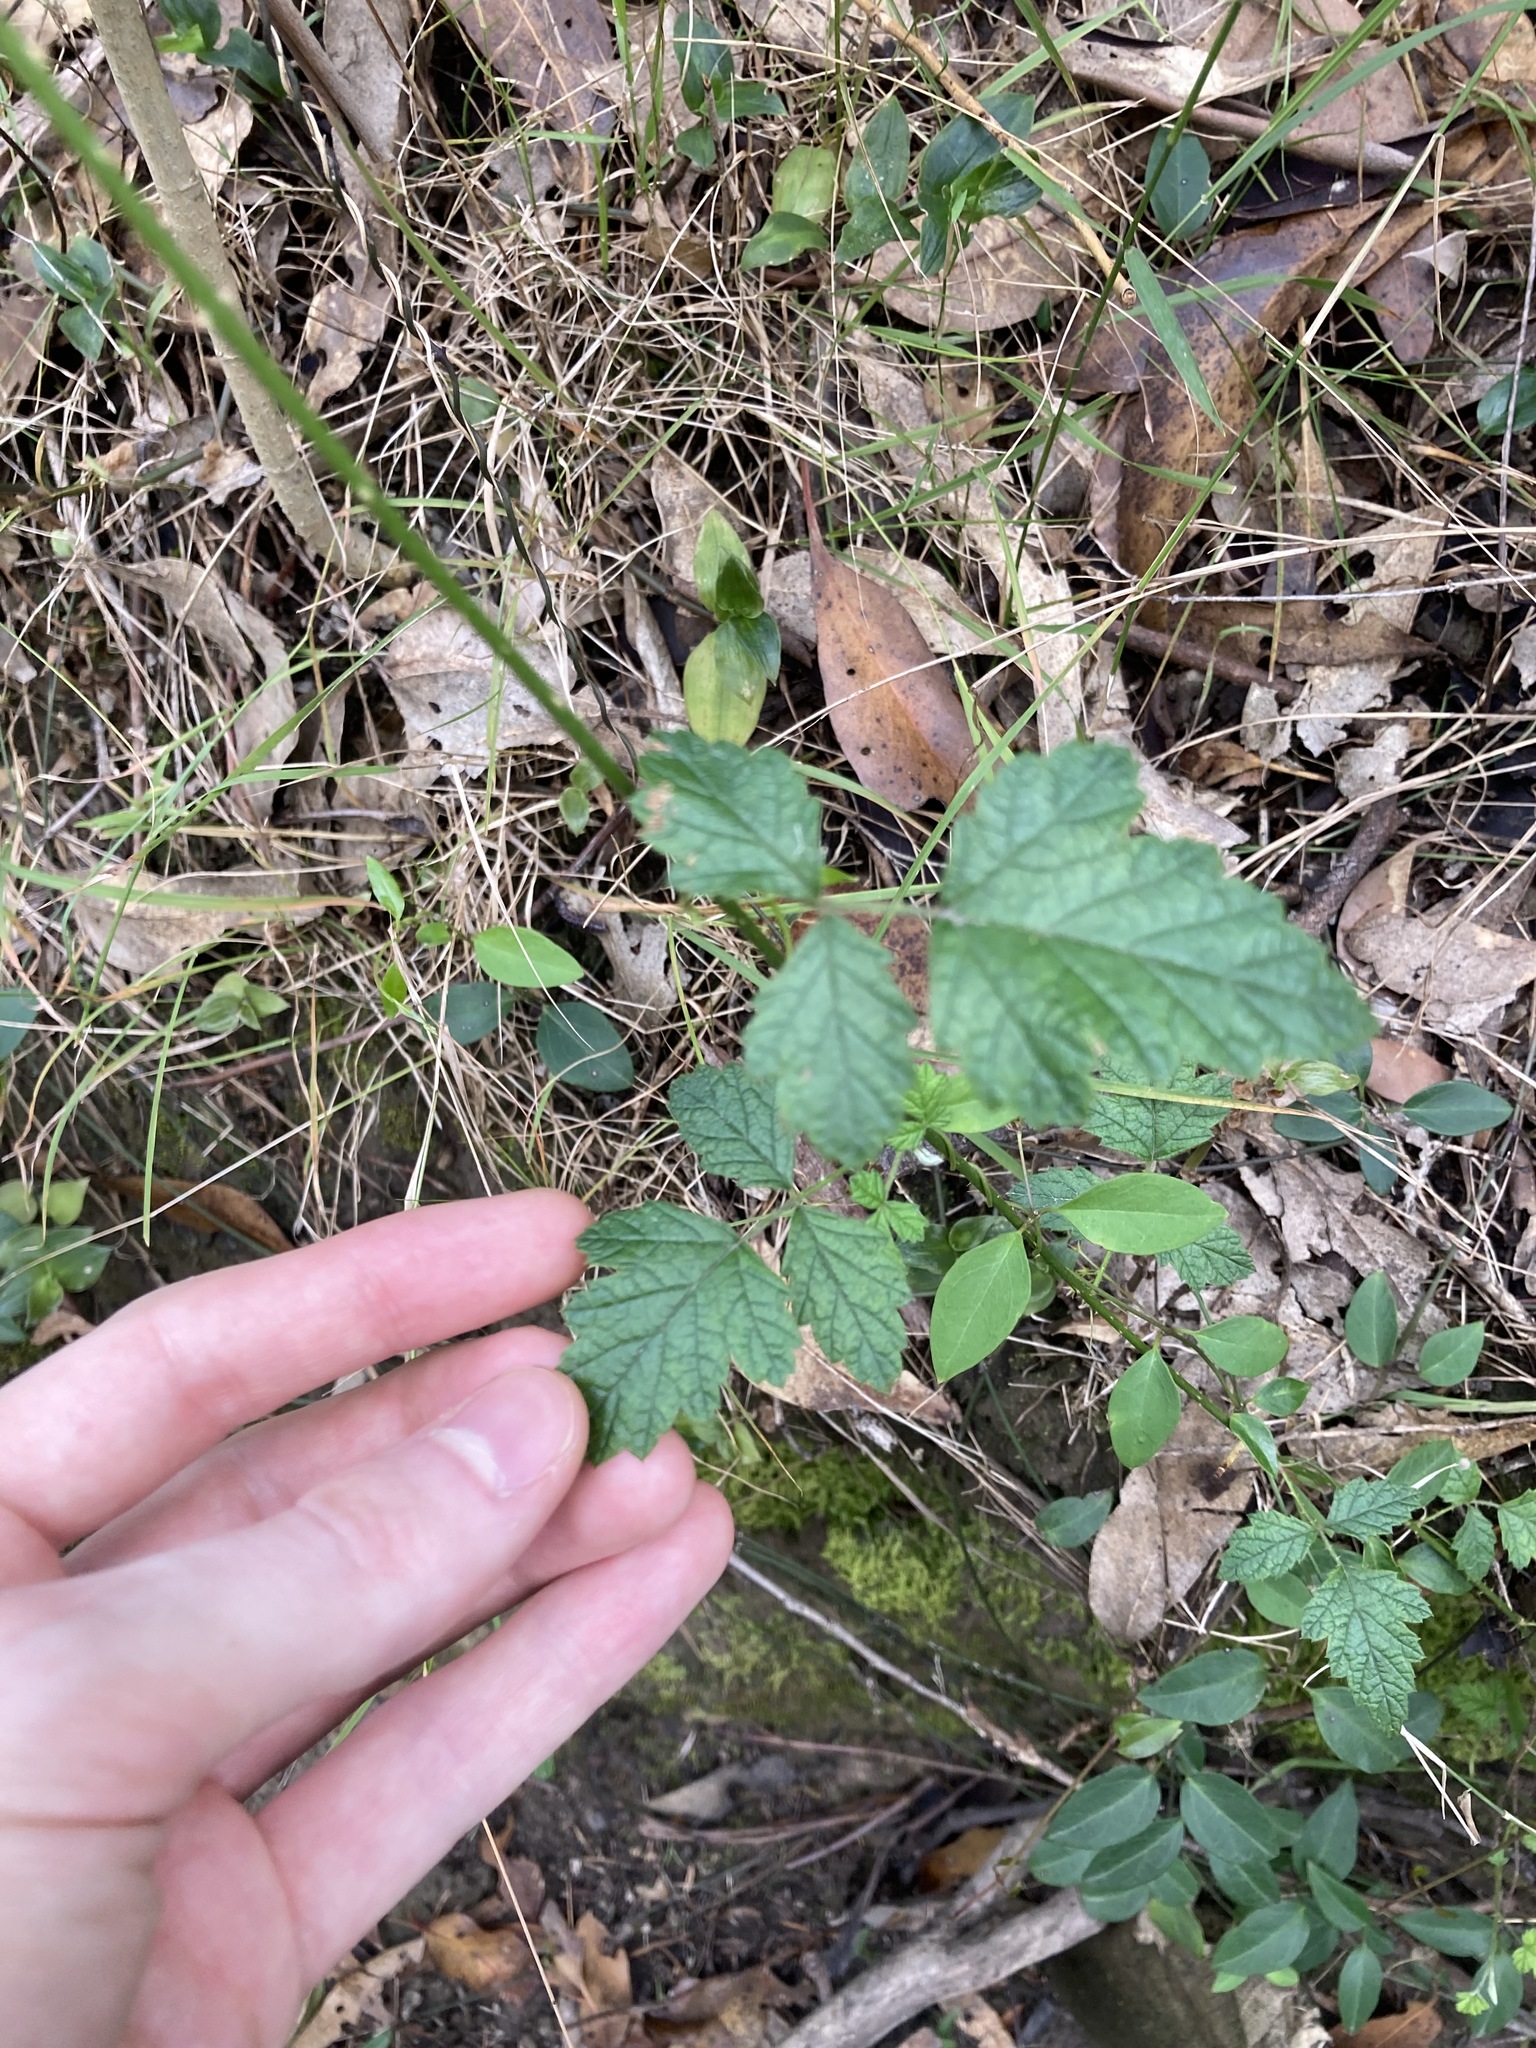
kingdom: Plantae
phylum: Tracheophyta
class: Magnoliopsida
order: Rosales
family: Rosaceae
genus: Rubus
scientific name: Rubus parvifolius
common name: Threeleaf blackberry
